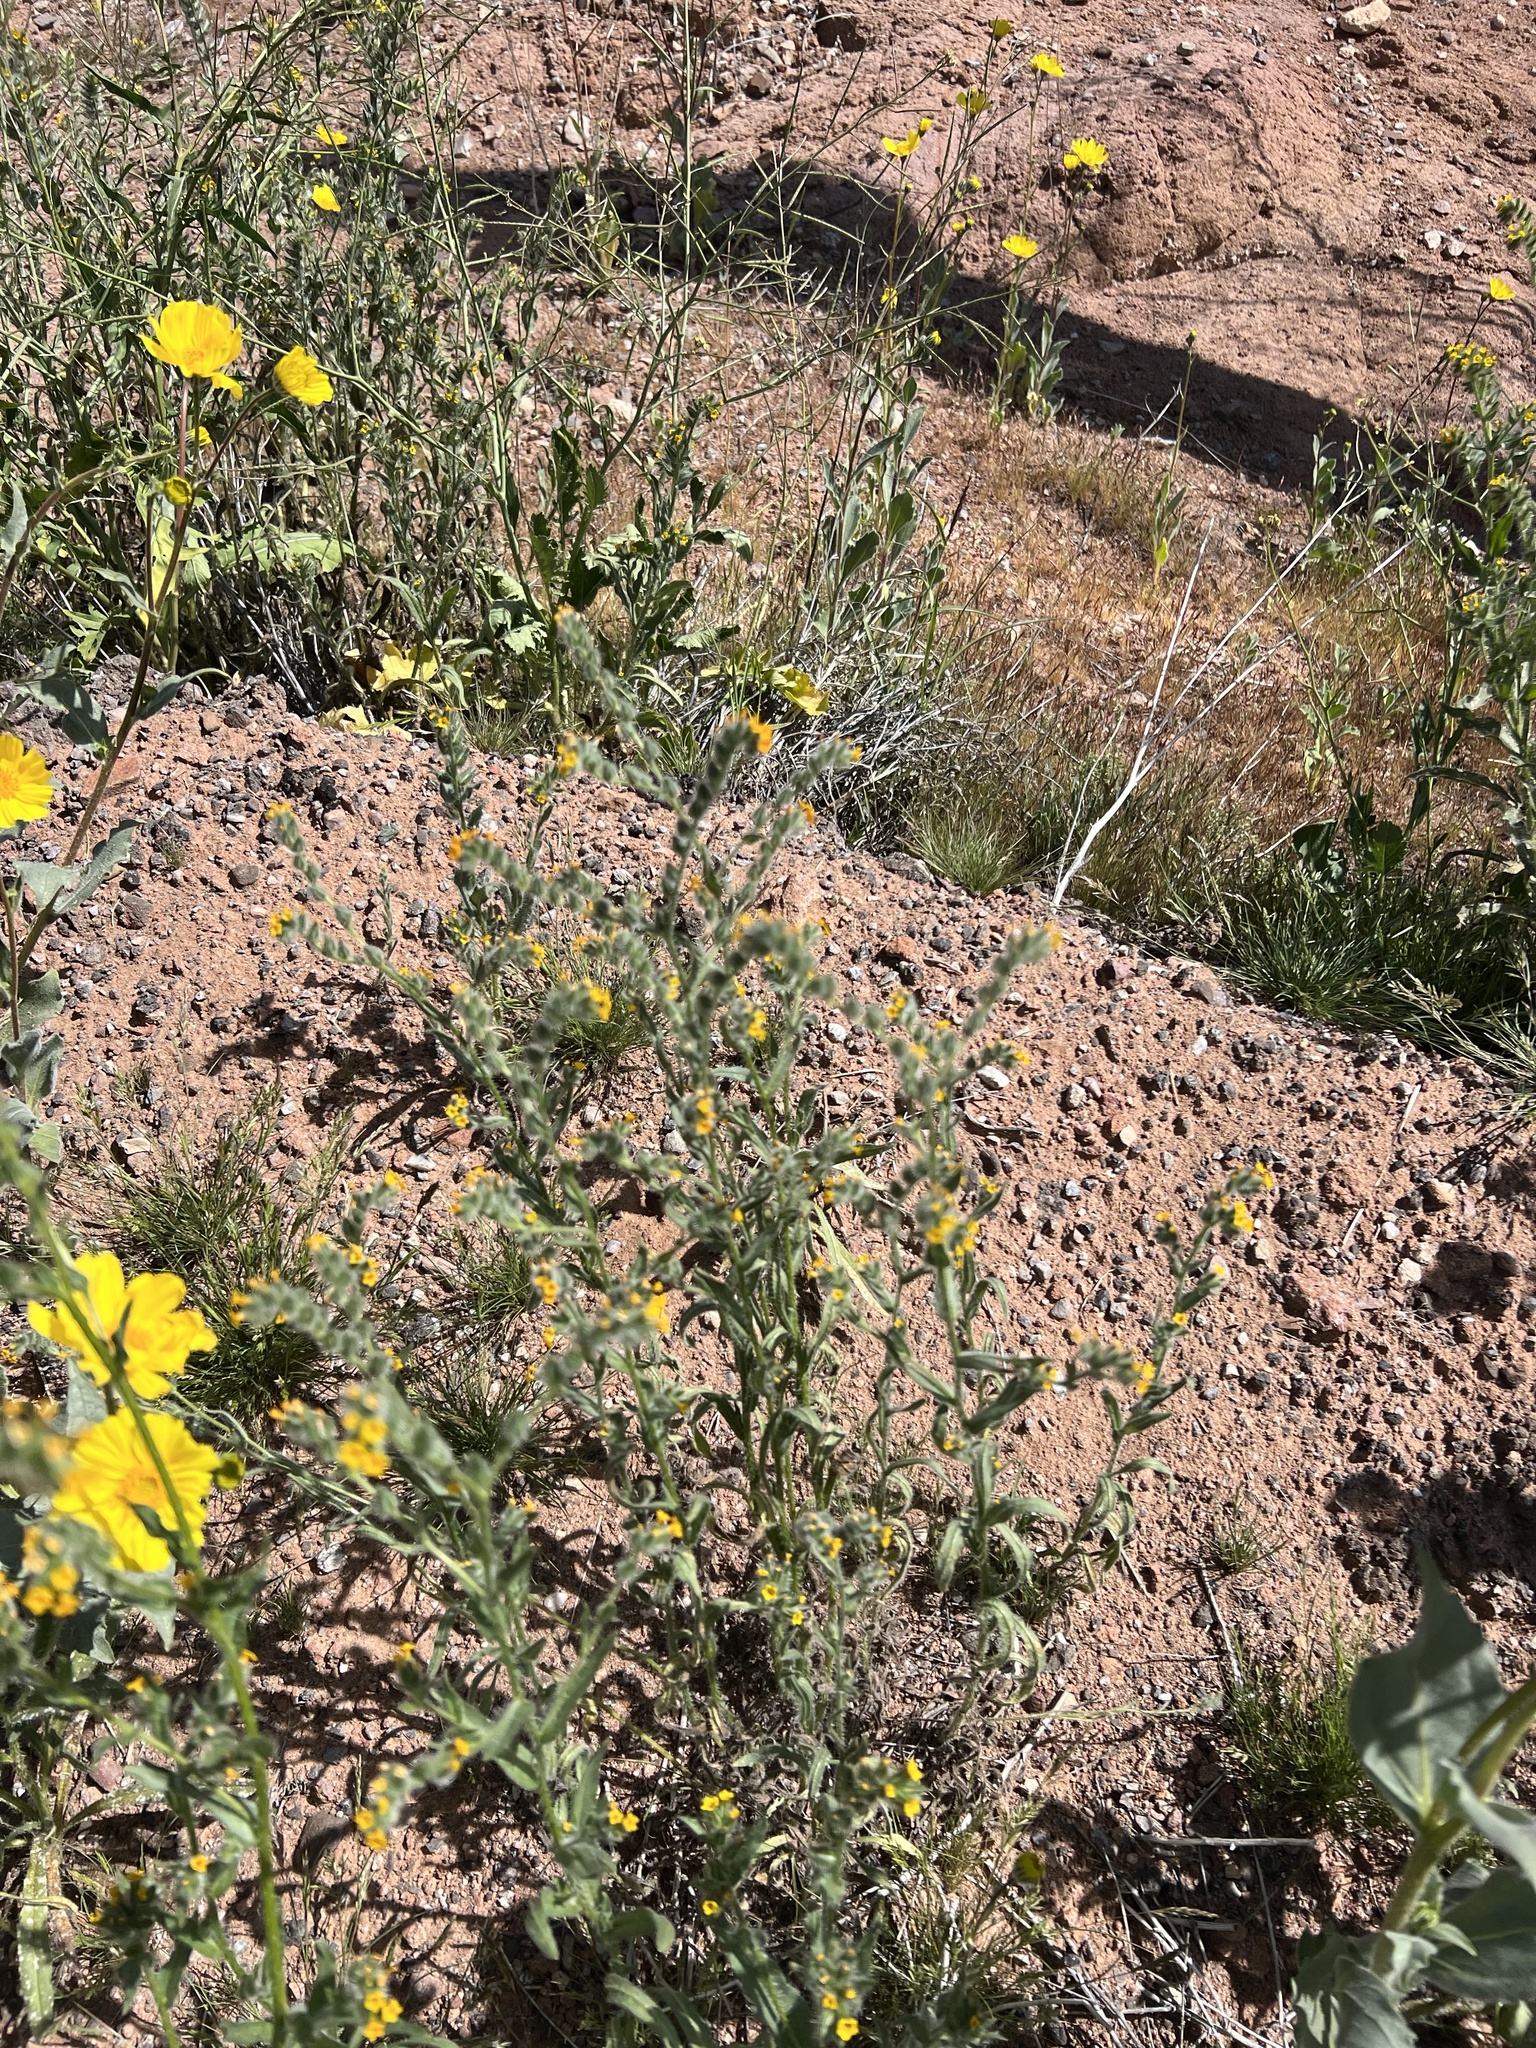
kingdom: Plantae
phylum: Tracheophyta
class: Magnoliopsida
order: Boraginales
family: Boraginaceae
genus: Amsinckia
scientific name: Amsinckia tessellata
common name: Tessellate fiddleneck
